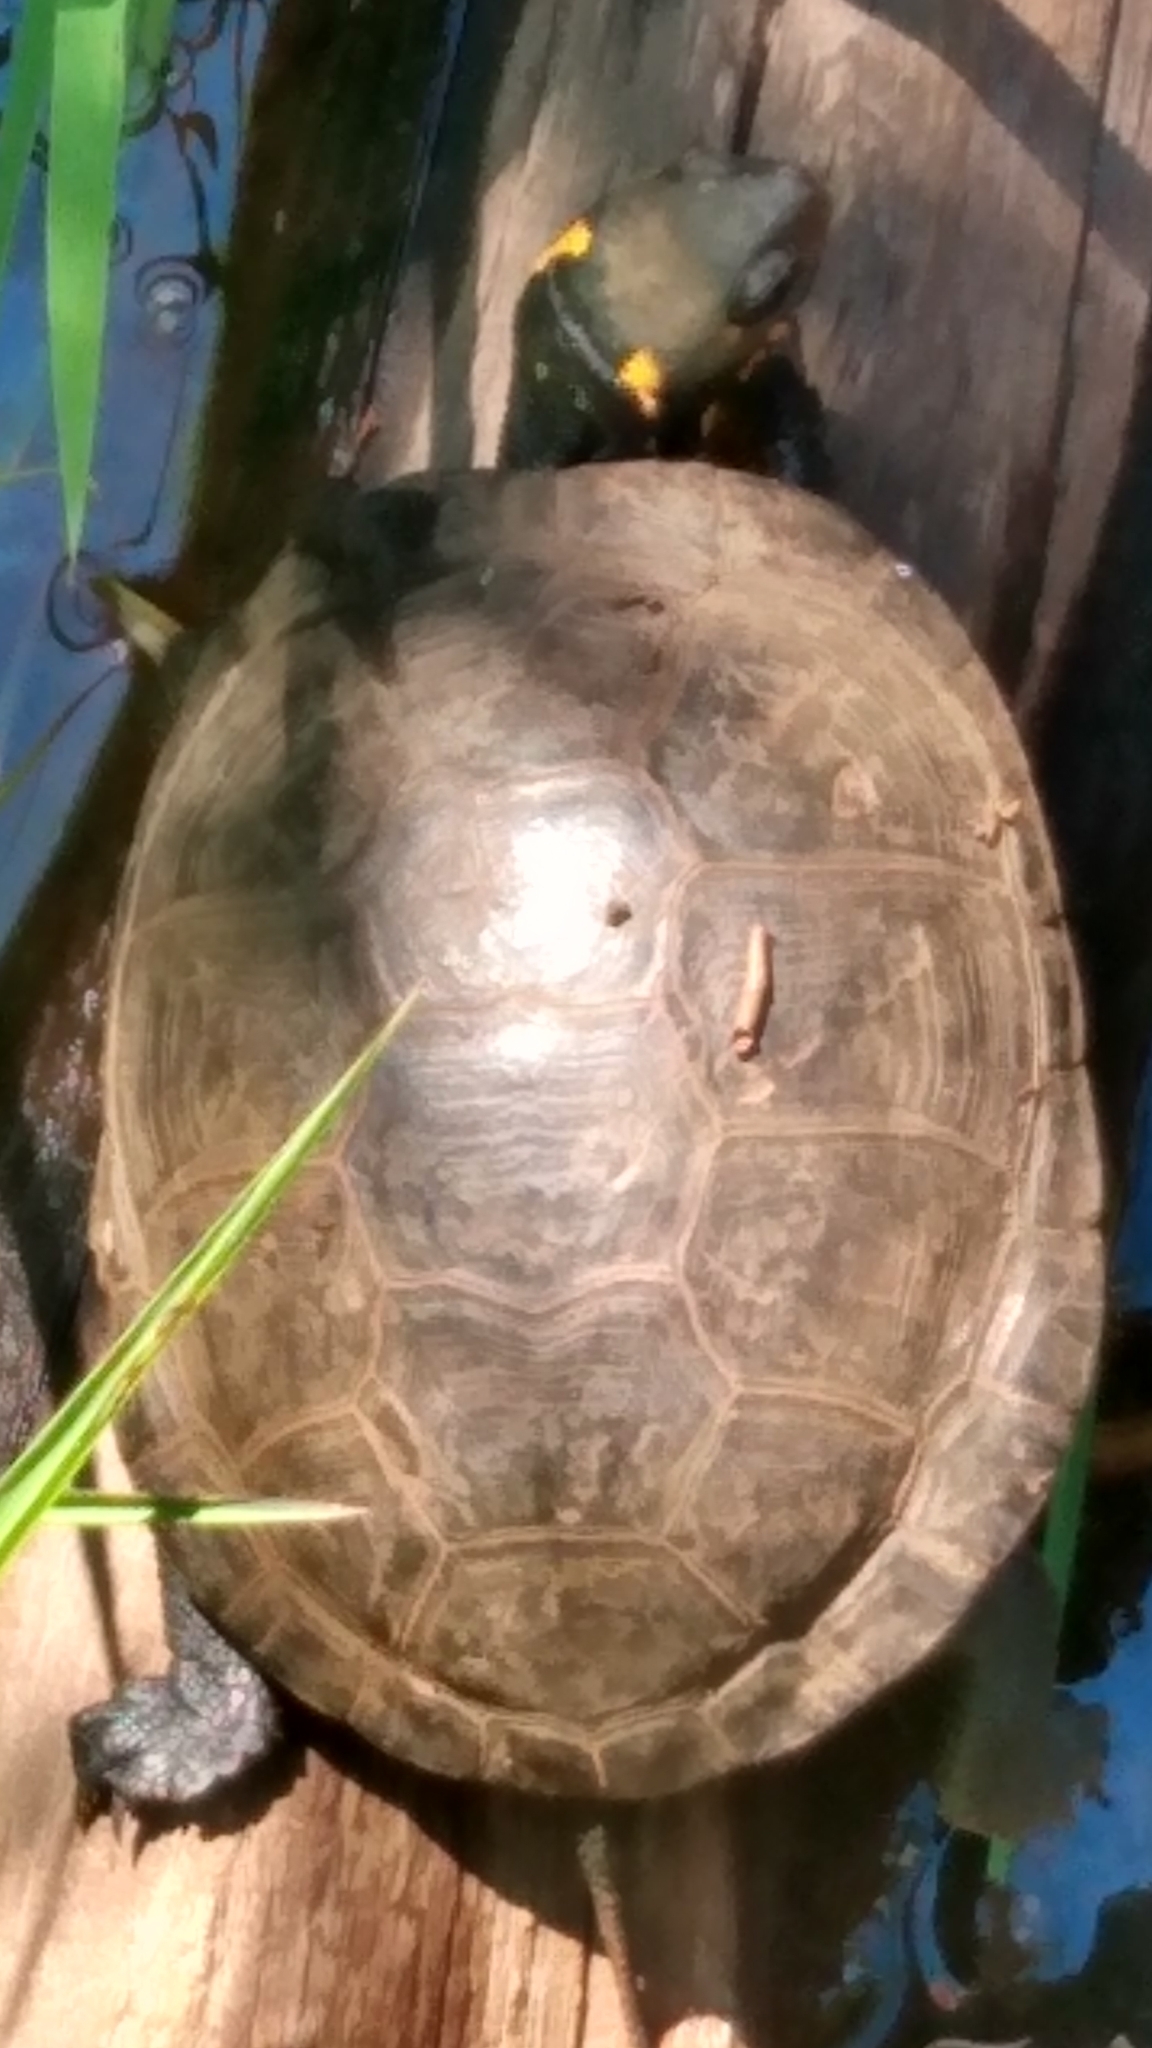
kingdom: Animalia
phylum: Chordata
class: Testudines
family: Emydidae
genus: Clemmys
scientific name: Clemmys guttata
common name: Spotted turtle
